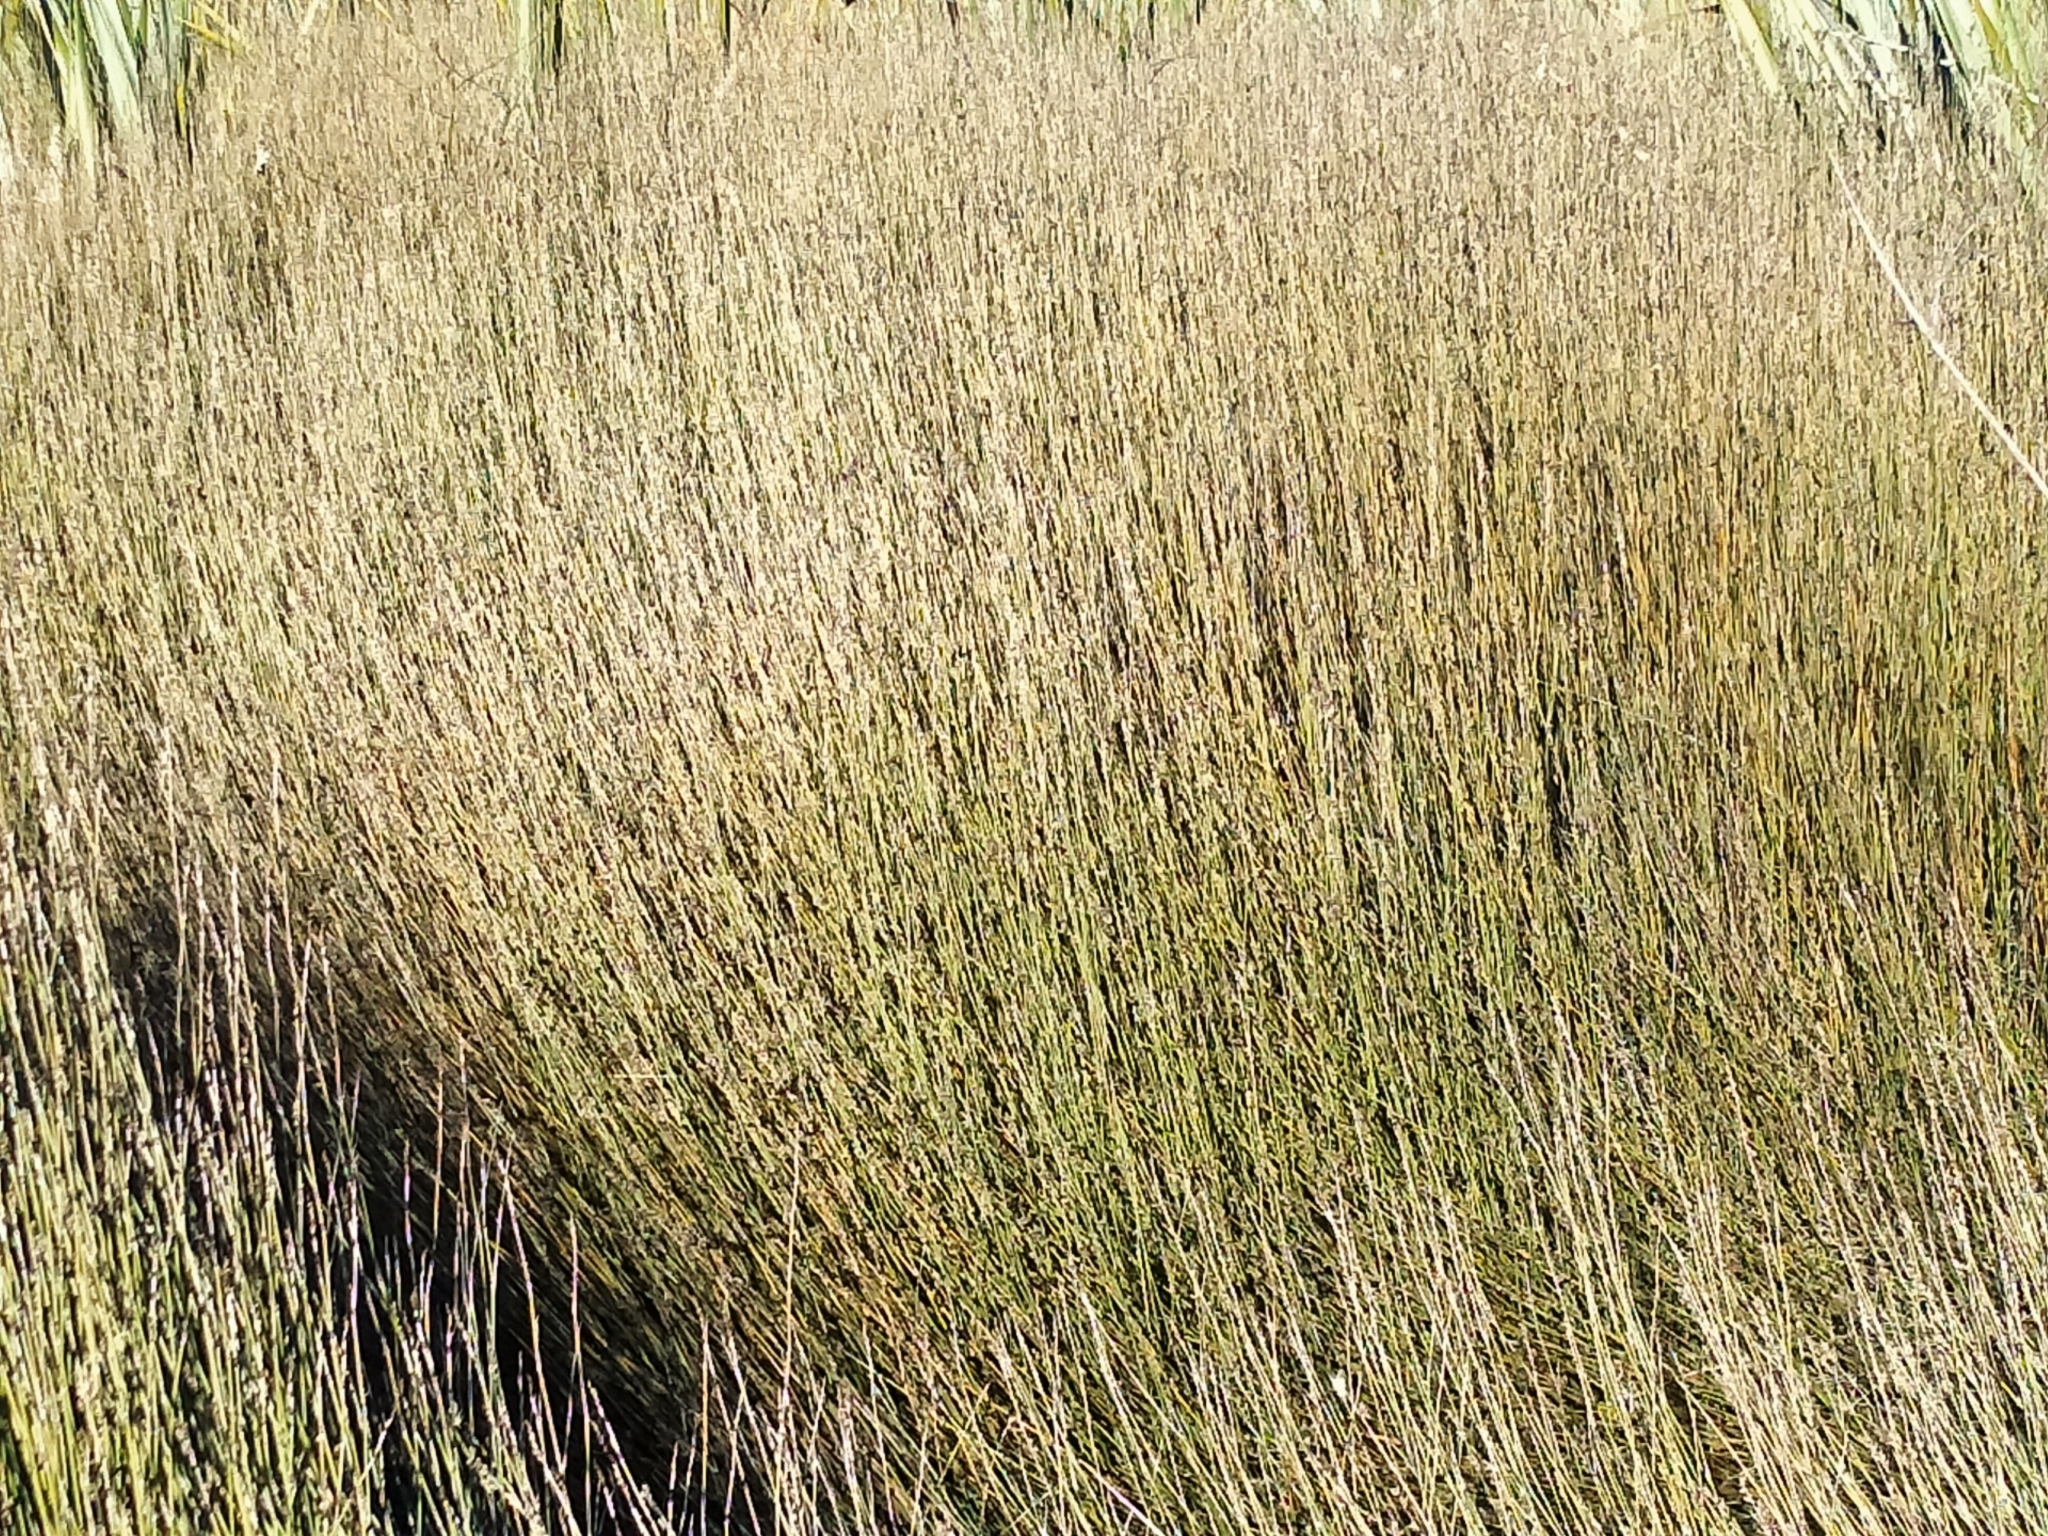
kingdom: Plantae
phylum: Tracheophyta
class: Liliopsida
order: Poales
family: Restionaceae
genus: Apodasmia
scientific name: Apodasmia similis
